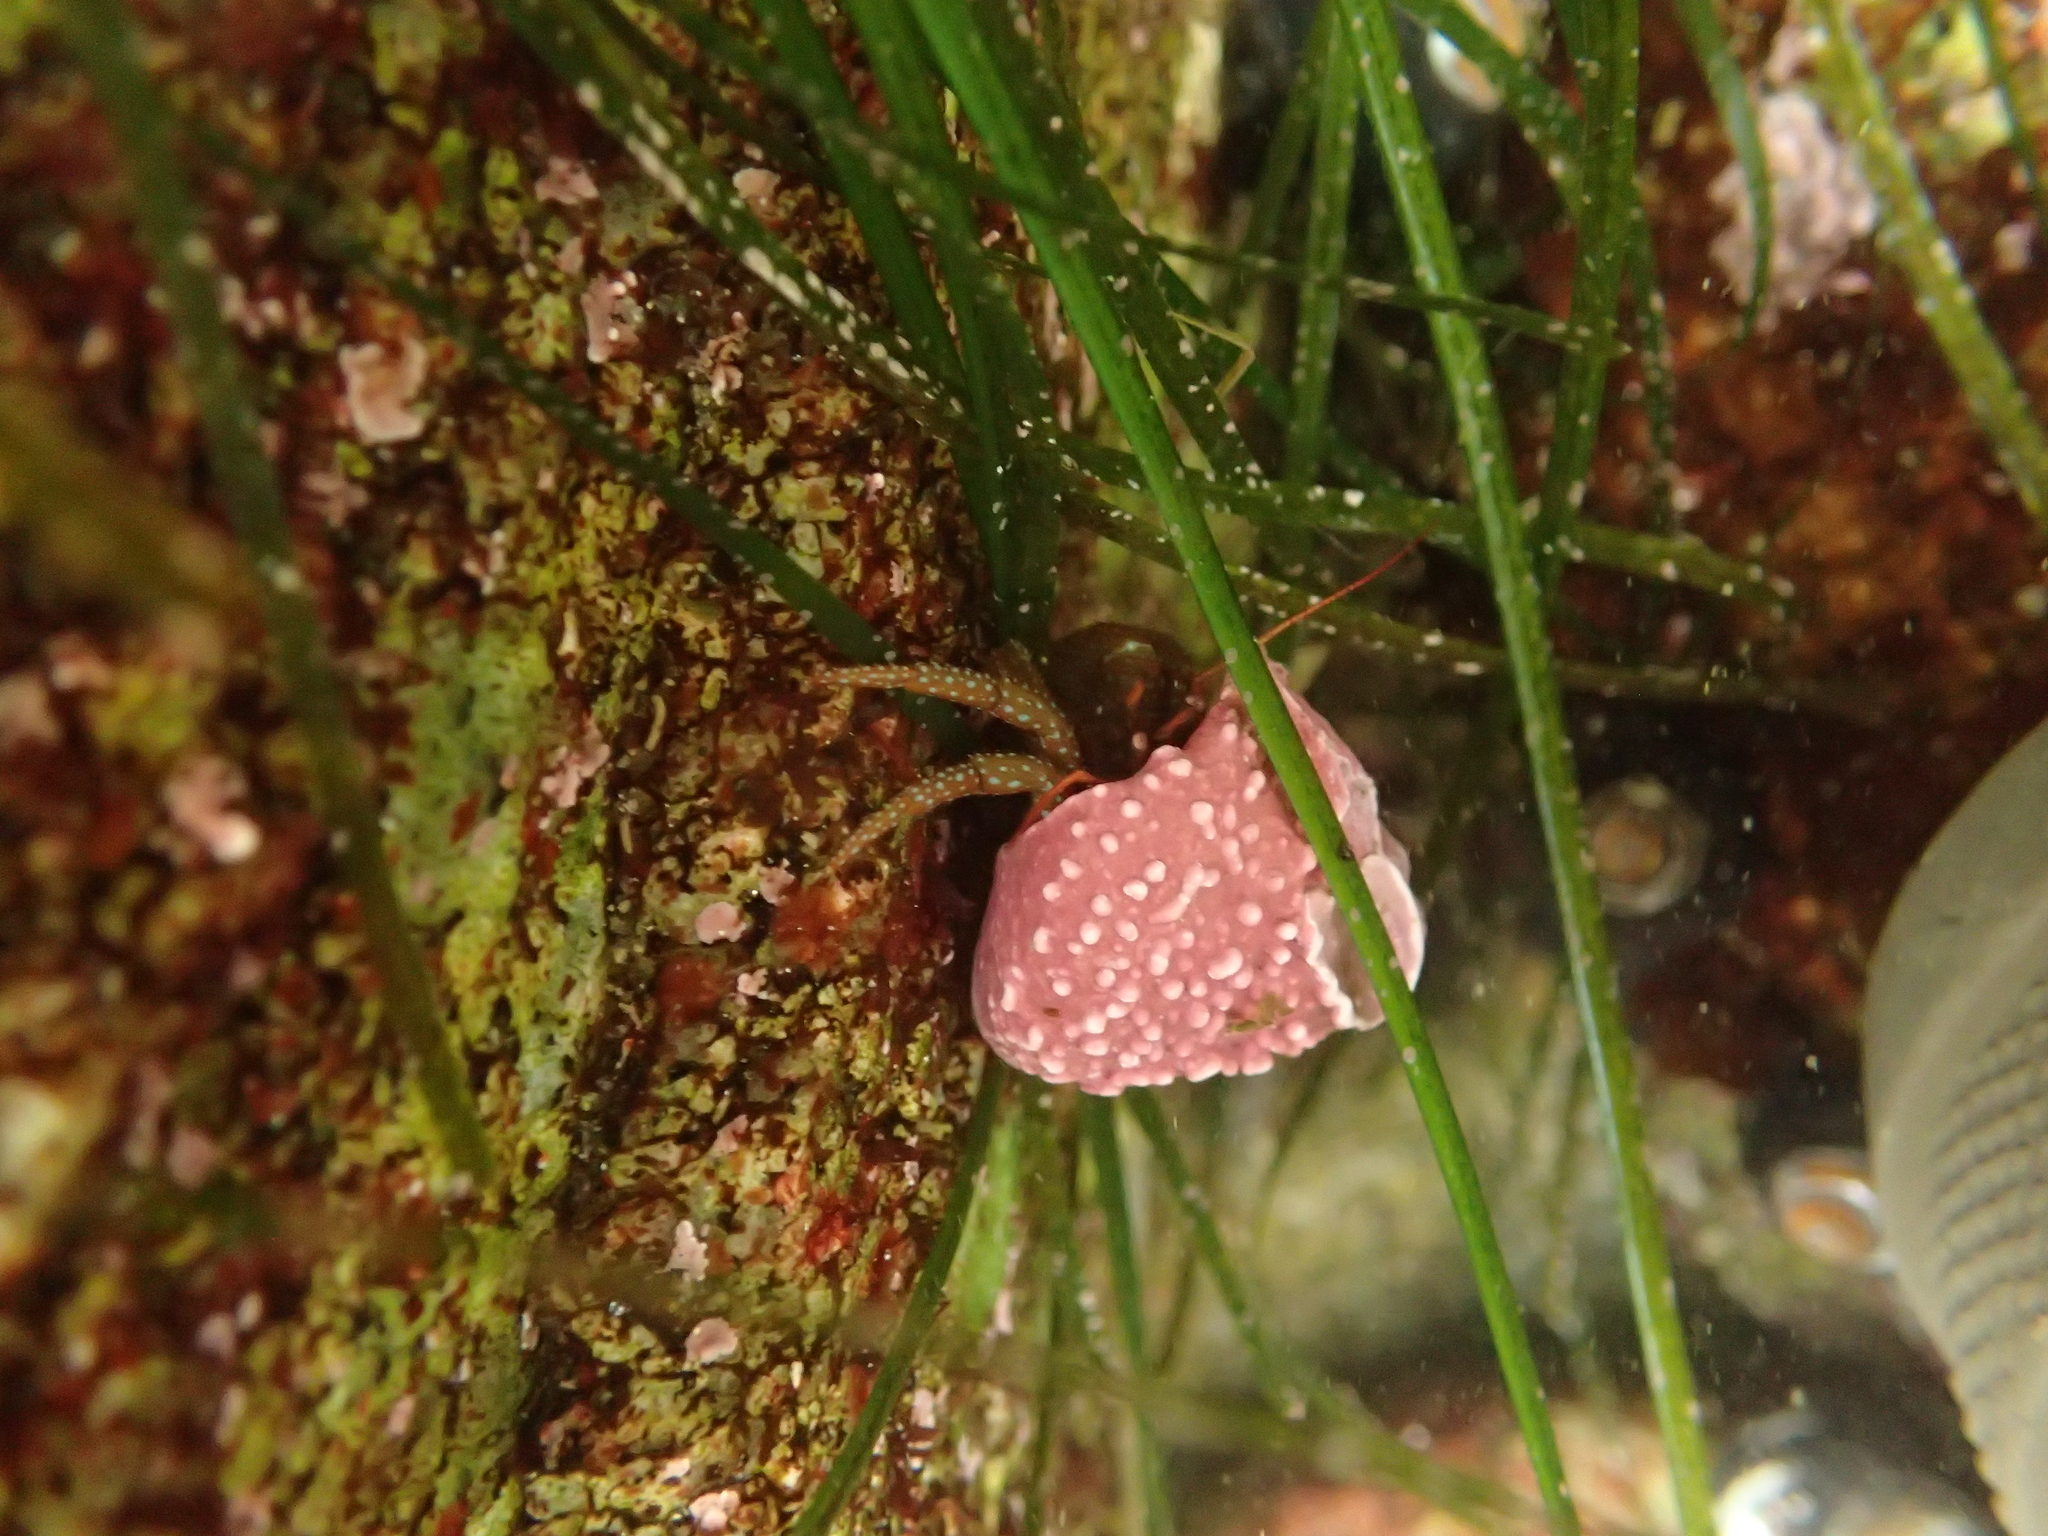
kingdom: Animalia
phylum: Arthropoda
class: Malacostraca
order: Decapoda
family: Paguridae
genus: Pagurus
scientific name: Pagurus granosimanus
